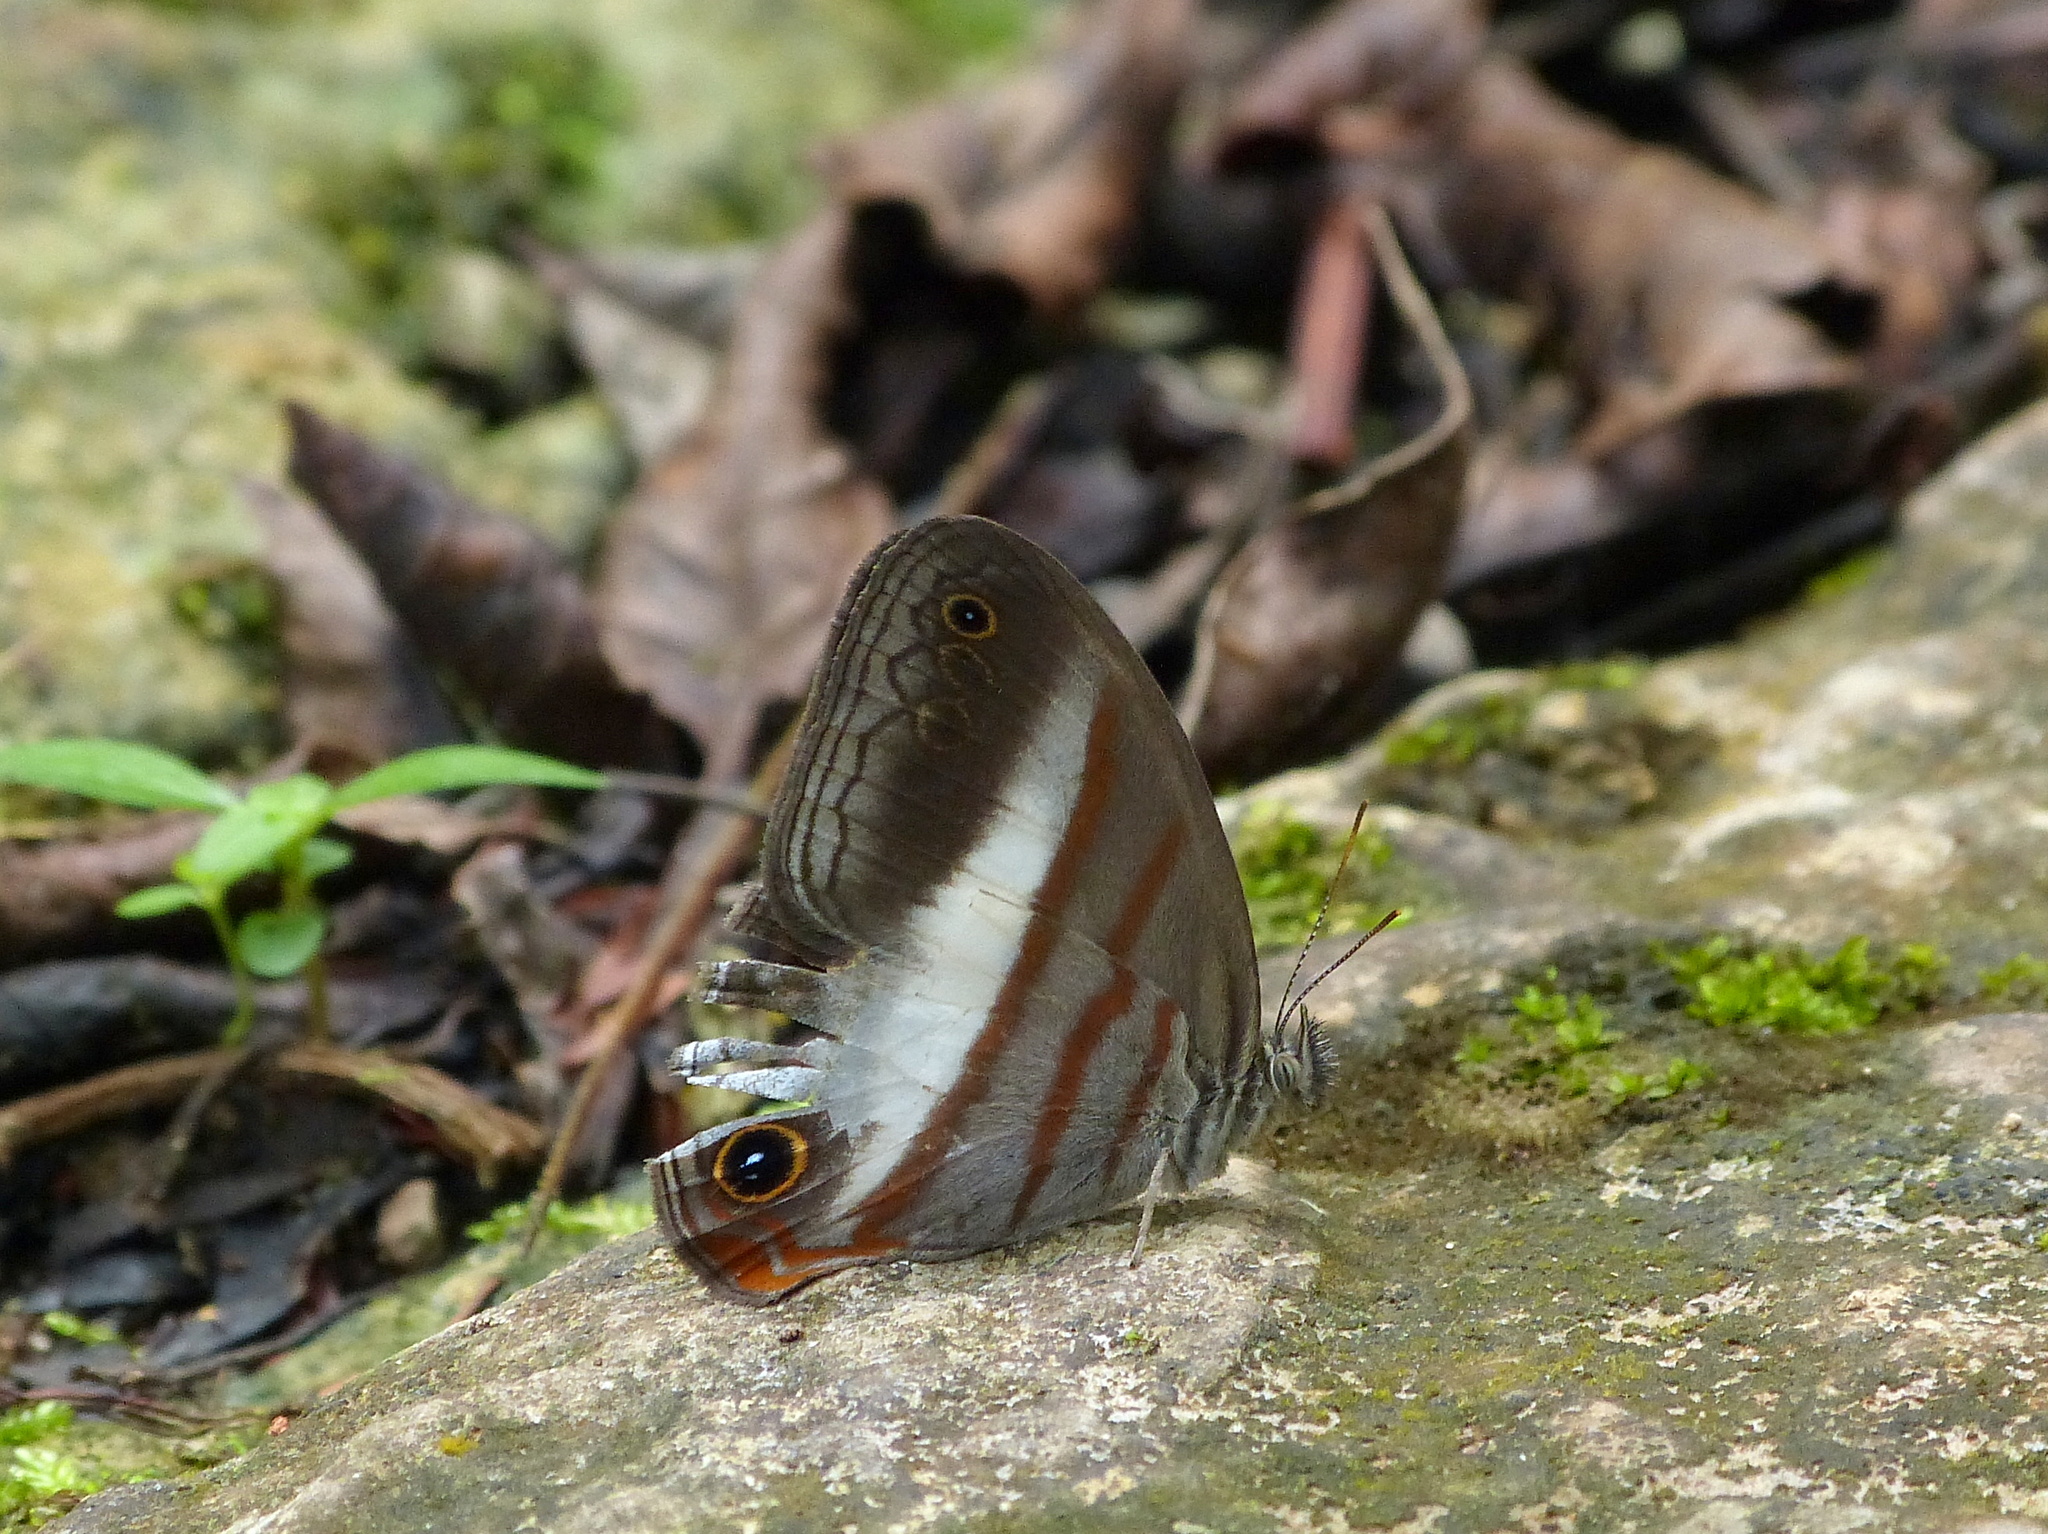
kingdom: Animalia
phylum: Arthropoda
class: Insecta
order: Lepidoptera
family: Nymphalidae
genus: Pareuptychia
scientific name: Pareuptychia metaleuca
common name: White-banded satyr
